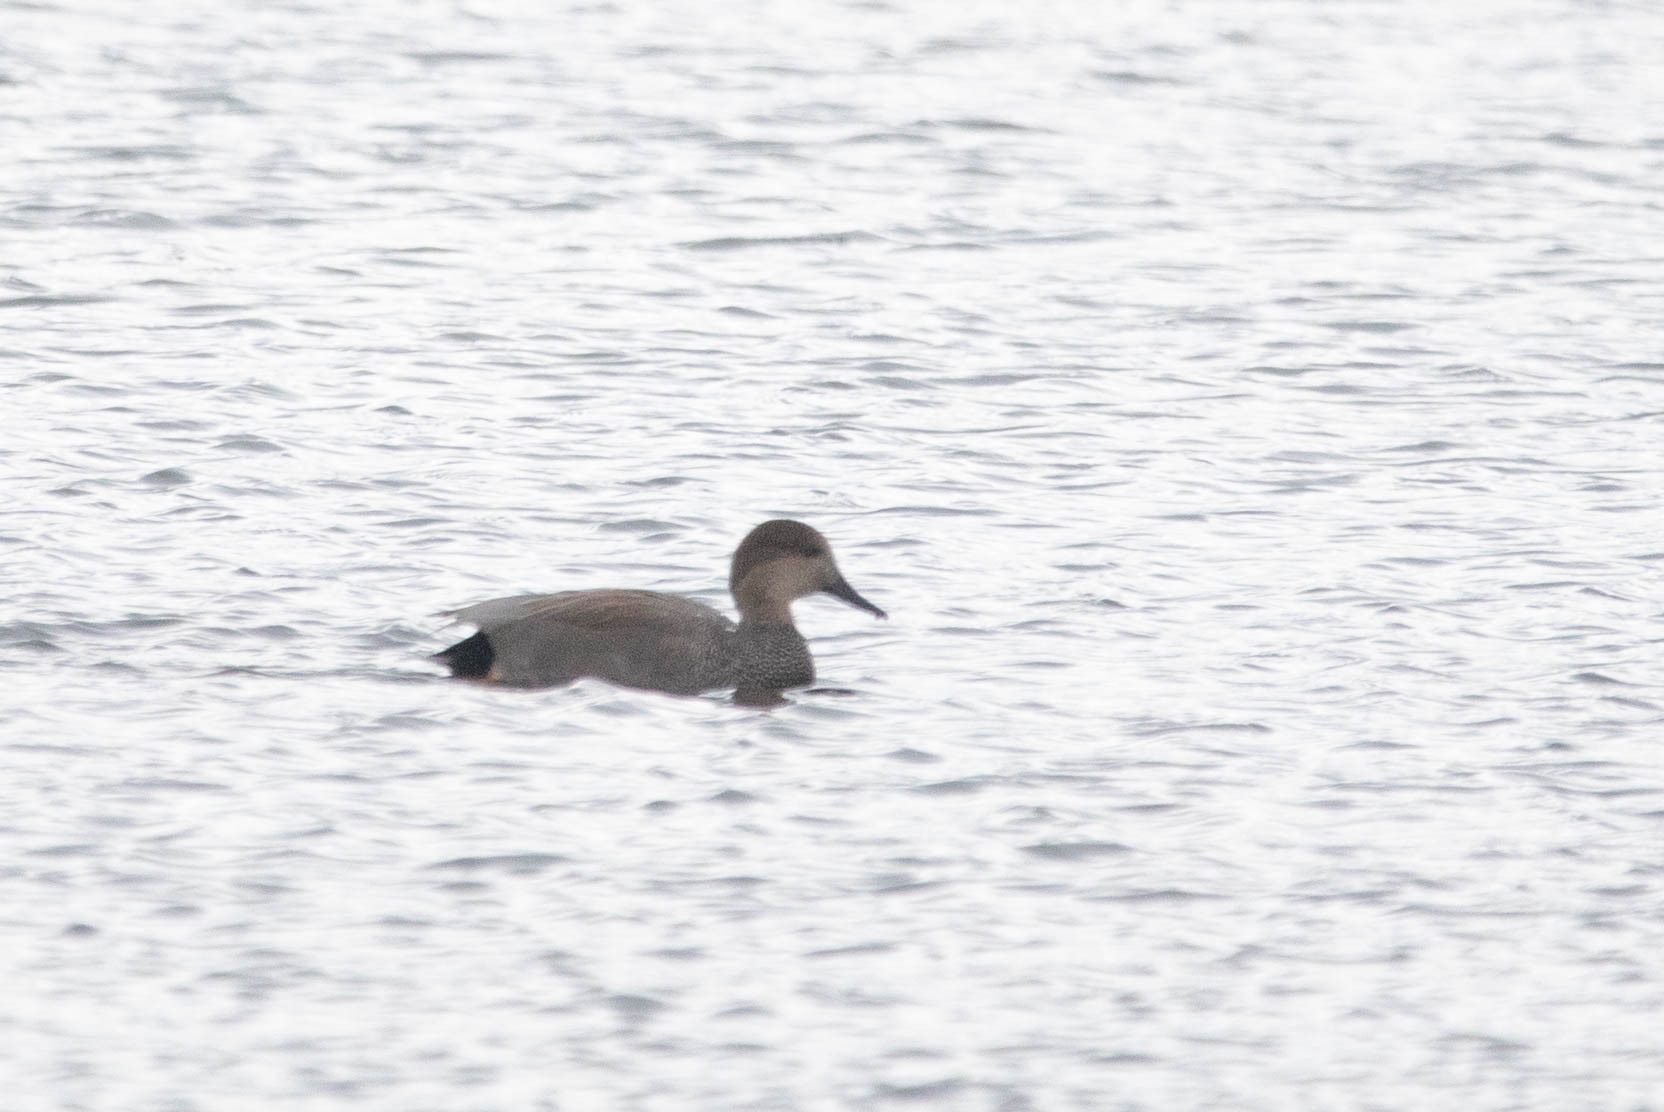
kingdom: Animalia
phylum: Chordata
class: Aves
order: Anseriformes
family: Anatidae
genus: Mareca
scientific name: Mareca strepera
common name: Gadwall
